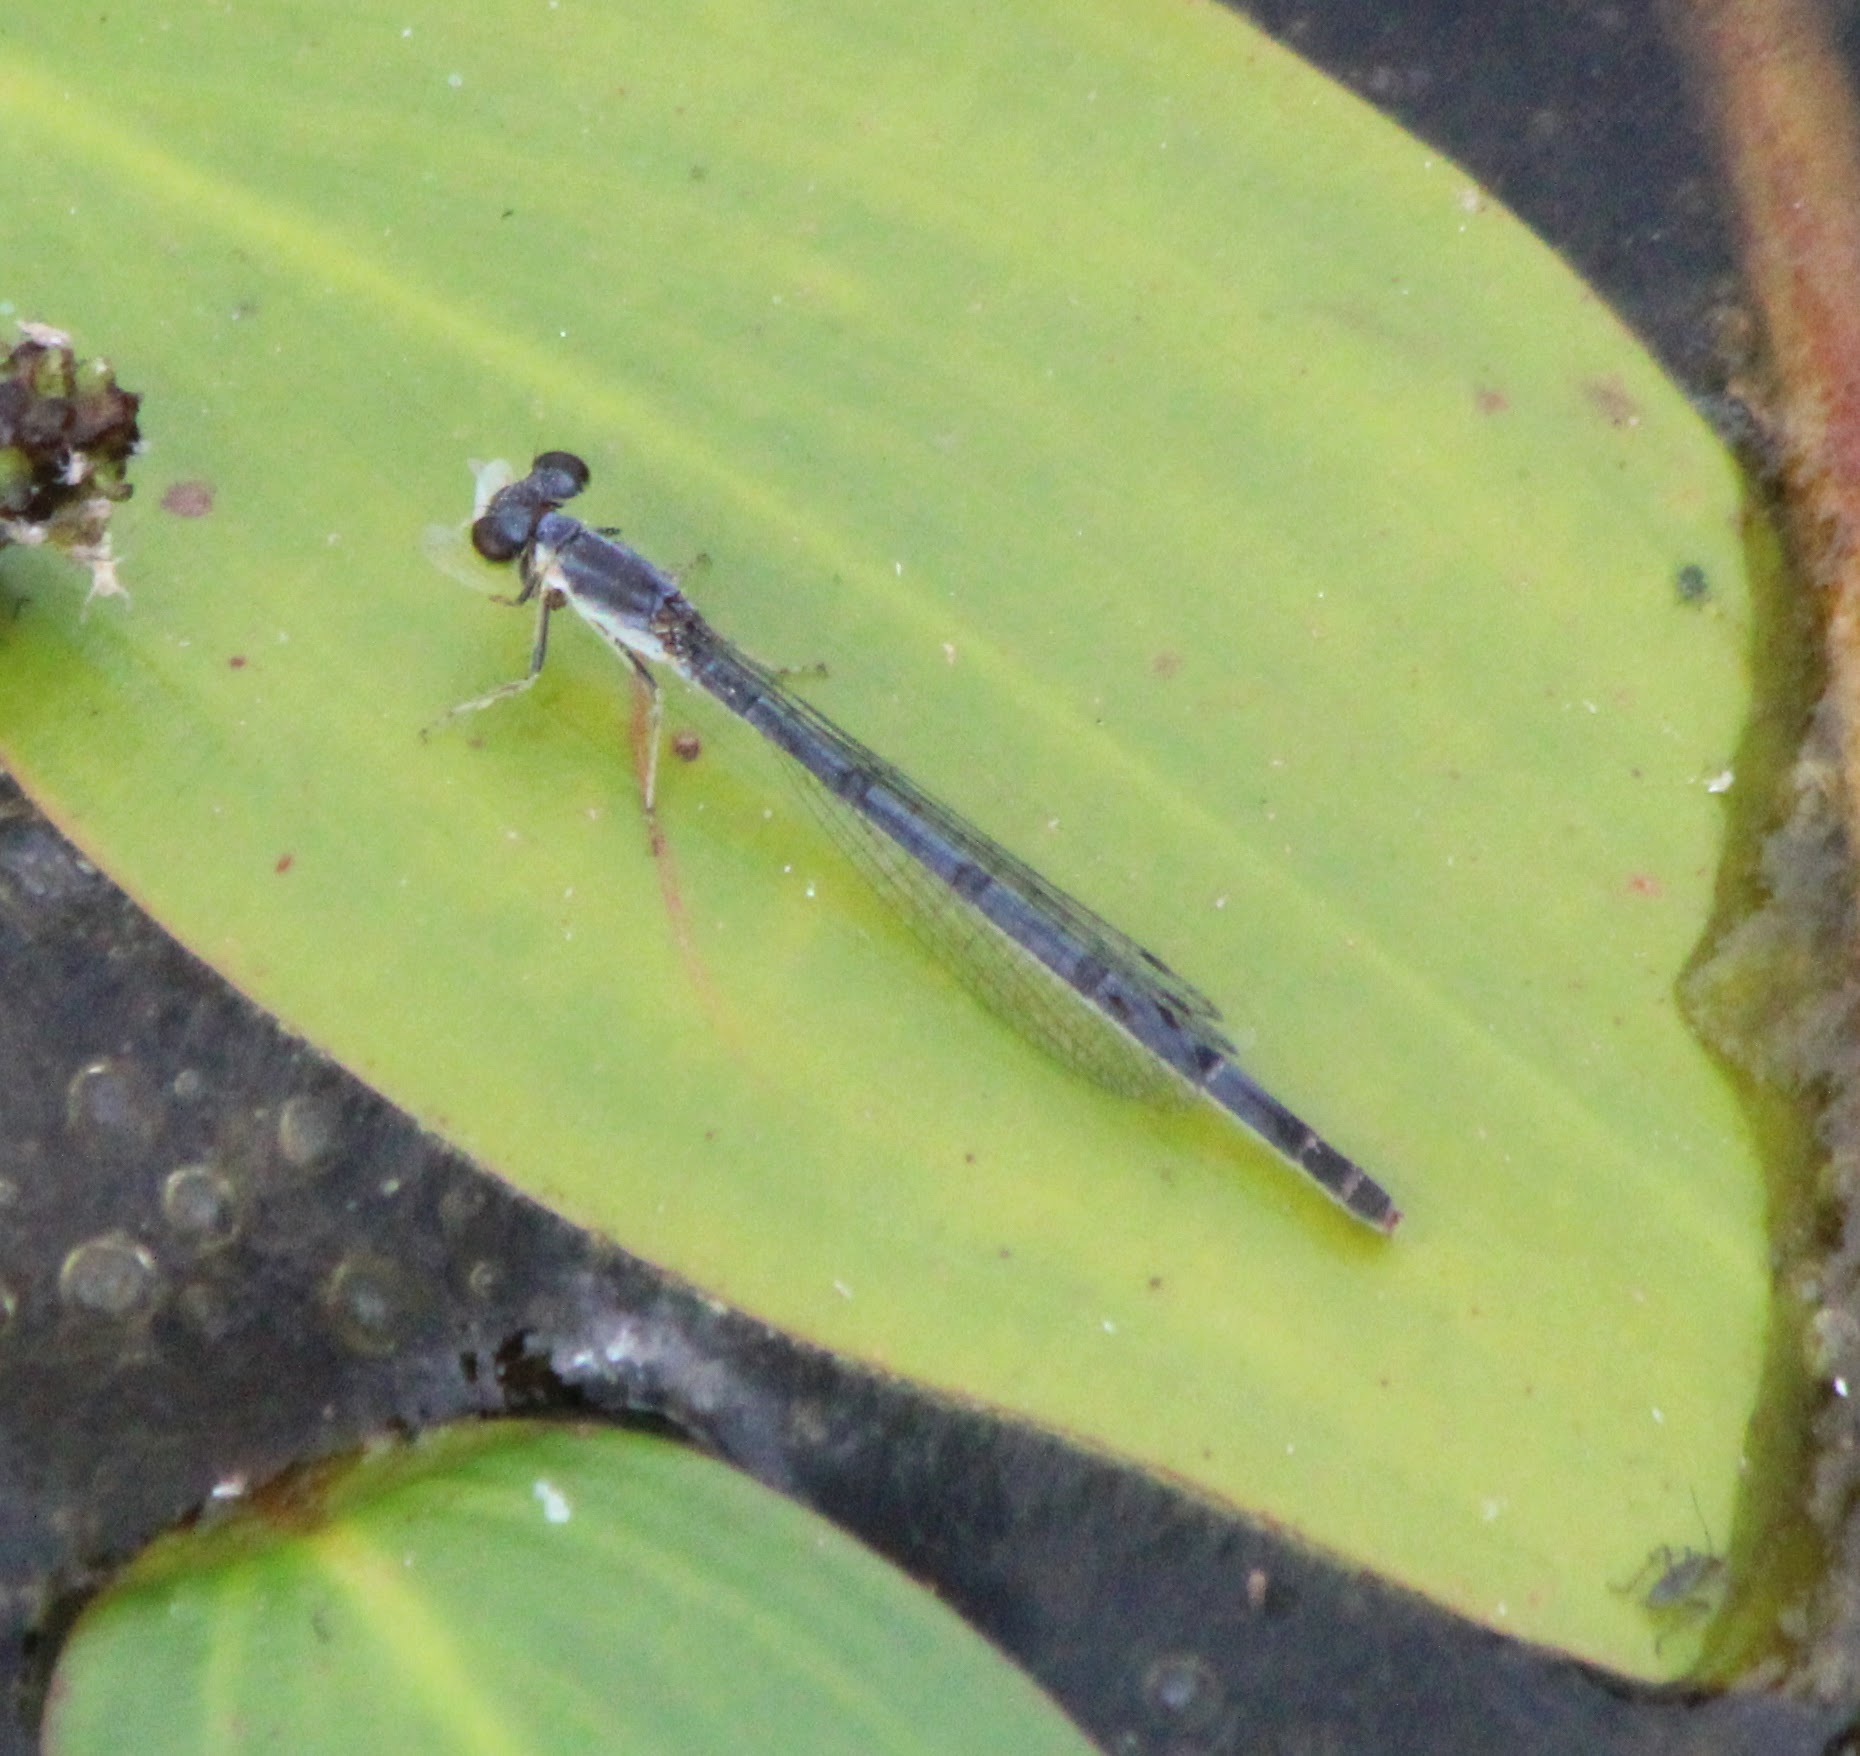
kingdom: Animalia
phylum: Arthropoda
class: Insecta
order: Odonata
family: Coenagrionidae
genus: Ischnura
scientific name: Ischnura posita
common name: Fragile forktail
